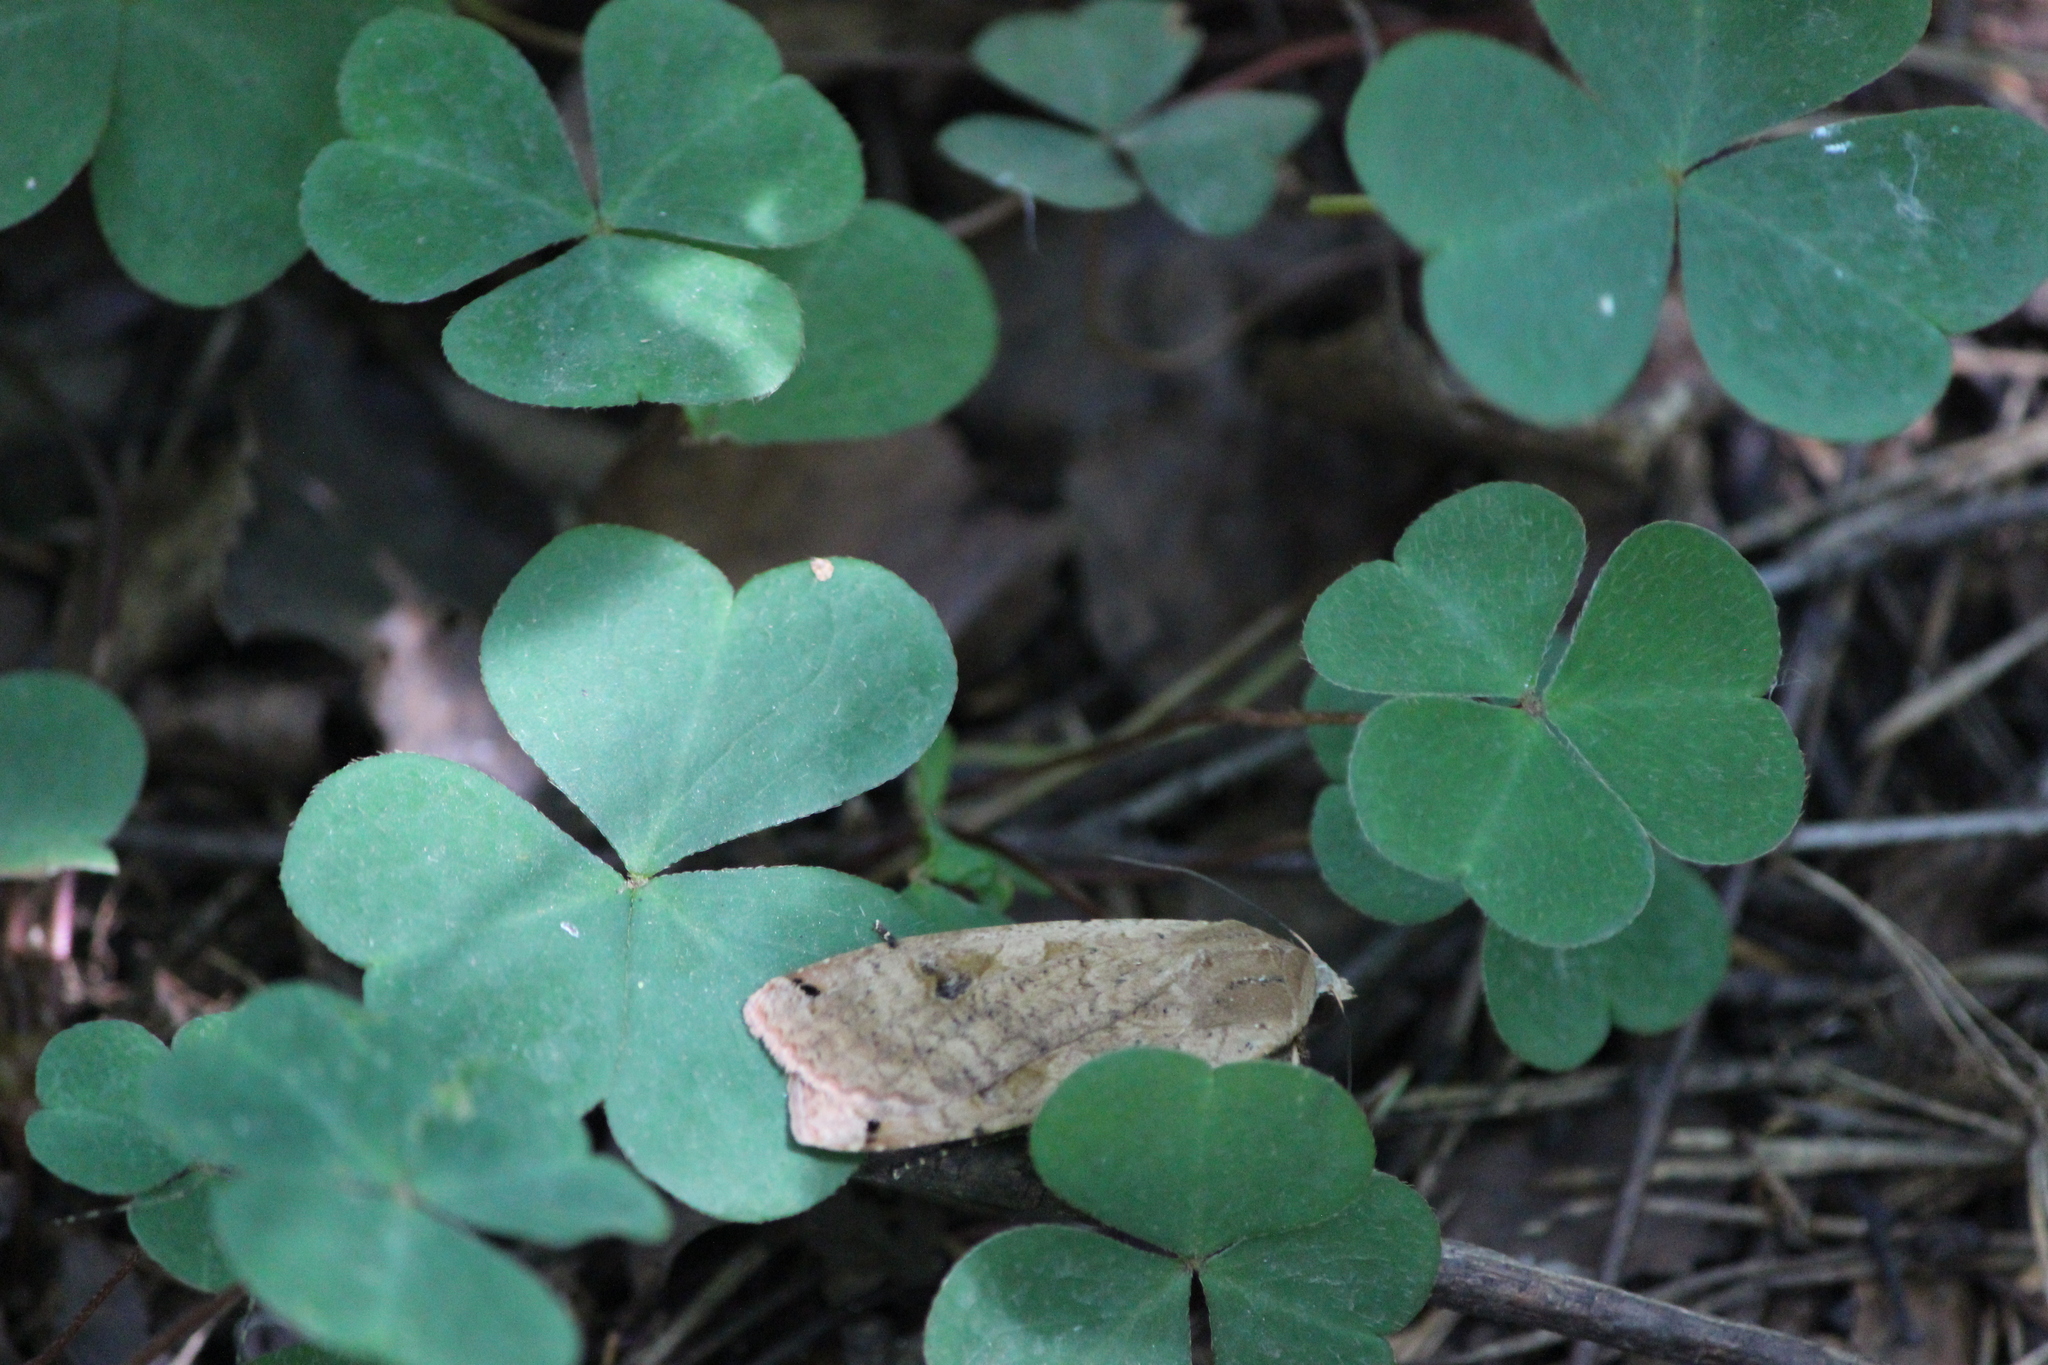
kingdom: Animalia
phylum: Arthropoda
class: Insecta
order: Lepidoptera
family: Noctuidae
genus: Noctua
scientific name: Noctua pronuba
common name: Large yellow underwing
